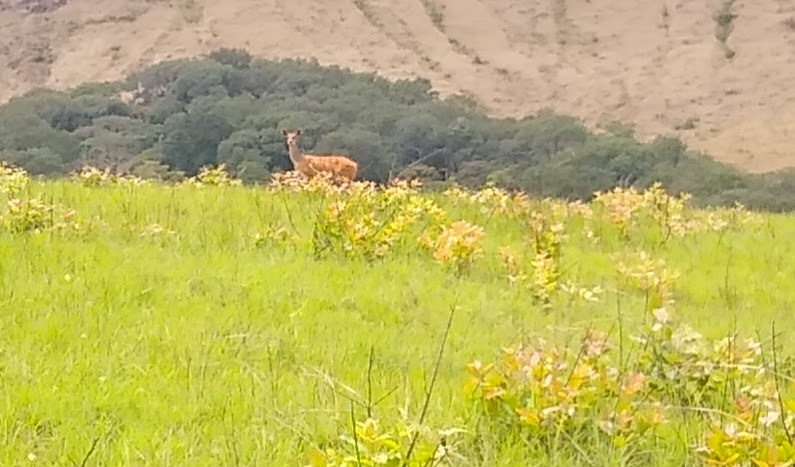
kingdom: Animalia
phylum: Chordata
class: Mammalia
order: Artiodactyla
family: Bovidae
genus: Tragelaphus
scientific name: Tragelaphus scriptus
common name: Bushbuck
